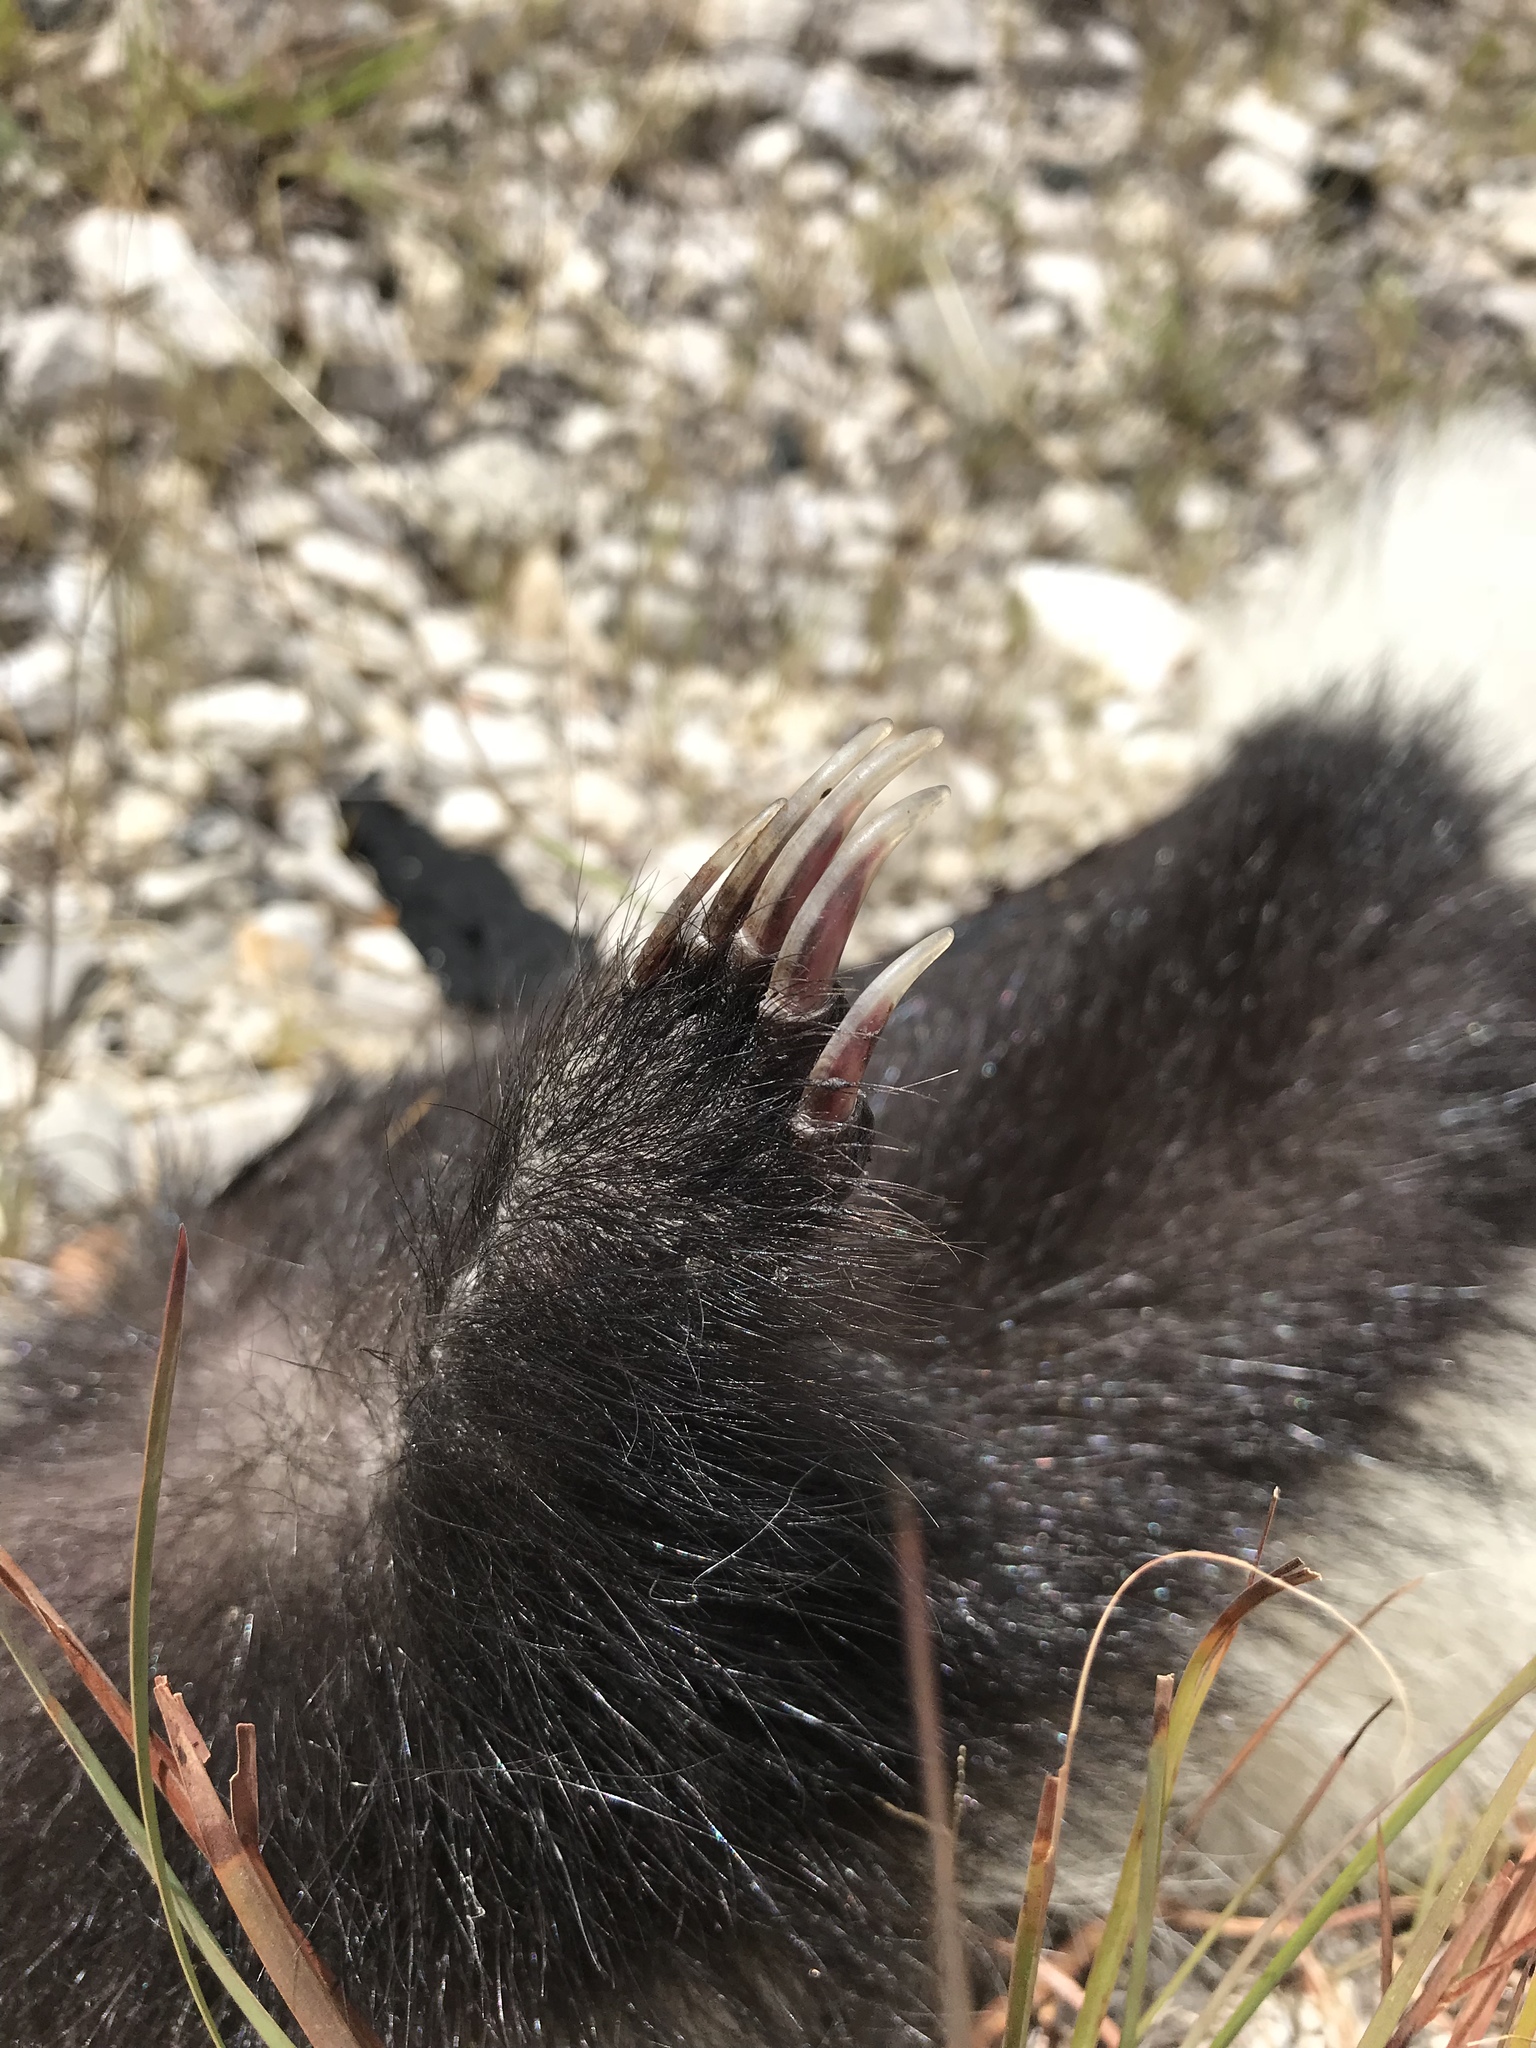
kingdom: Animalia
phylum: Chordata
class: Mammalia
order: Carnivora
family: Mephitidae
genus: Conepatus
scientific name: Conepatus leuconotus
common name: Eastern hog-nosed skunk
